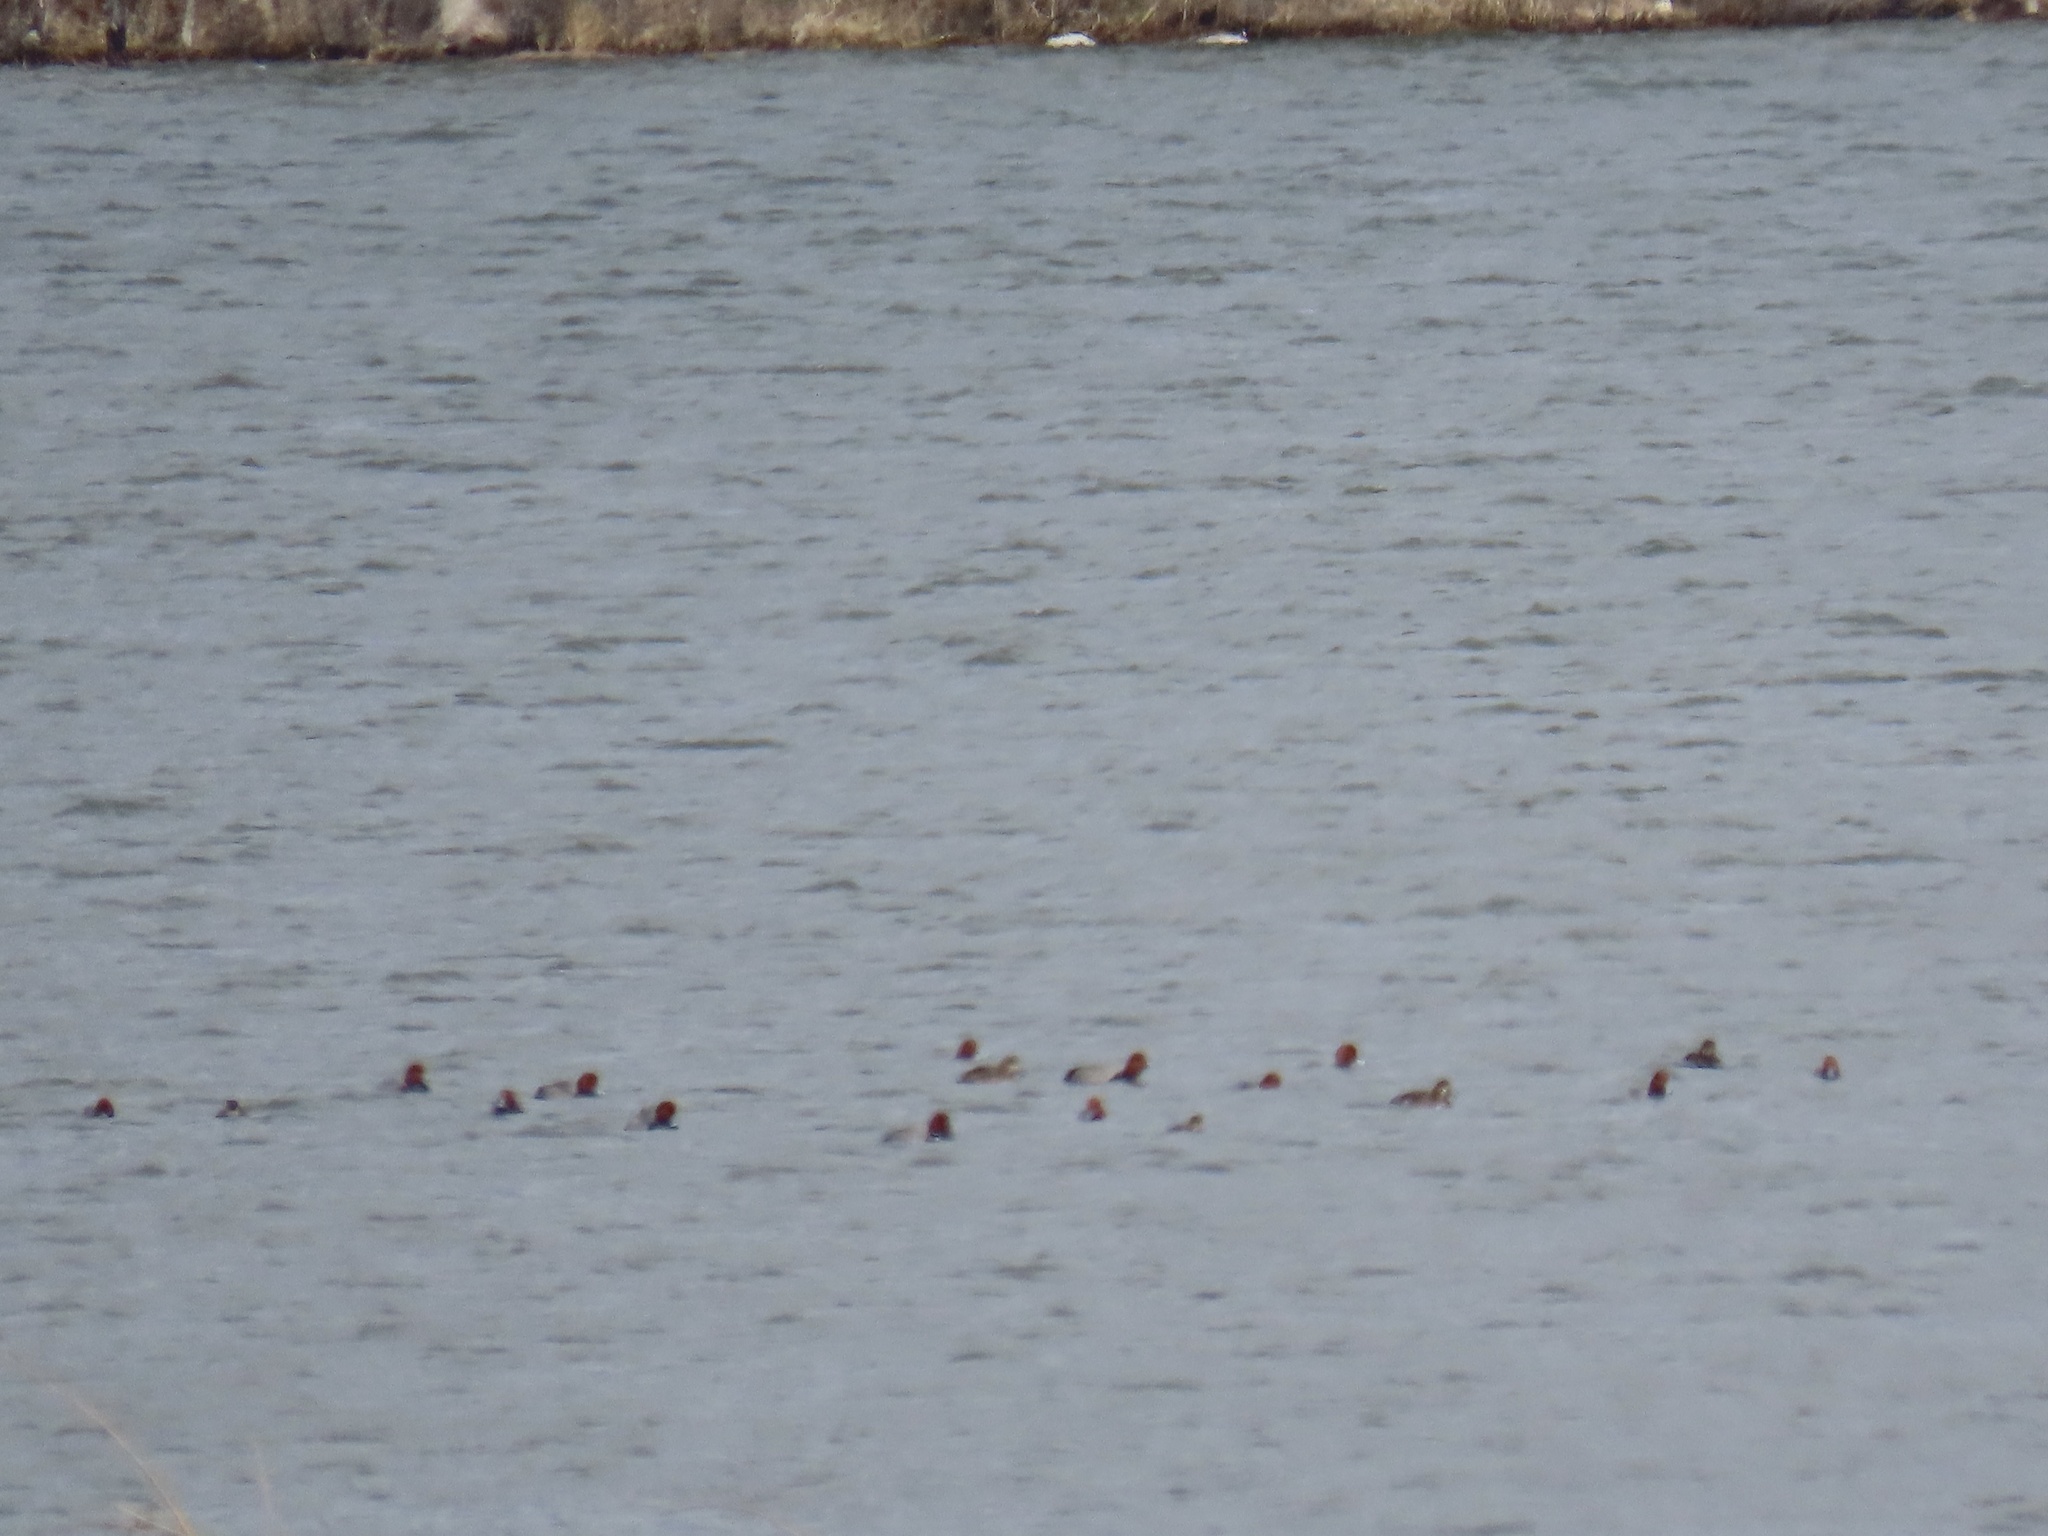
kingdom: Animalia
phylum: Chordata
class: Aves
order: Anseriformes
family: Anatidae
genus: Aythya
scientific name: Aythya americana
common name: Redhead
